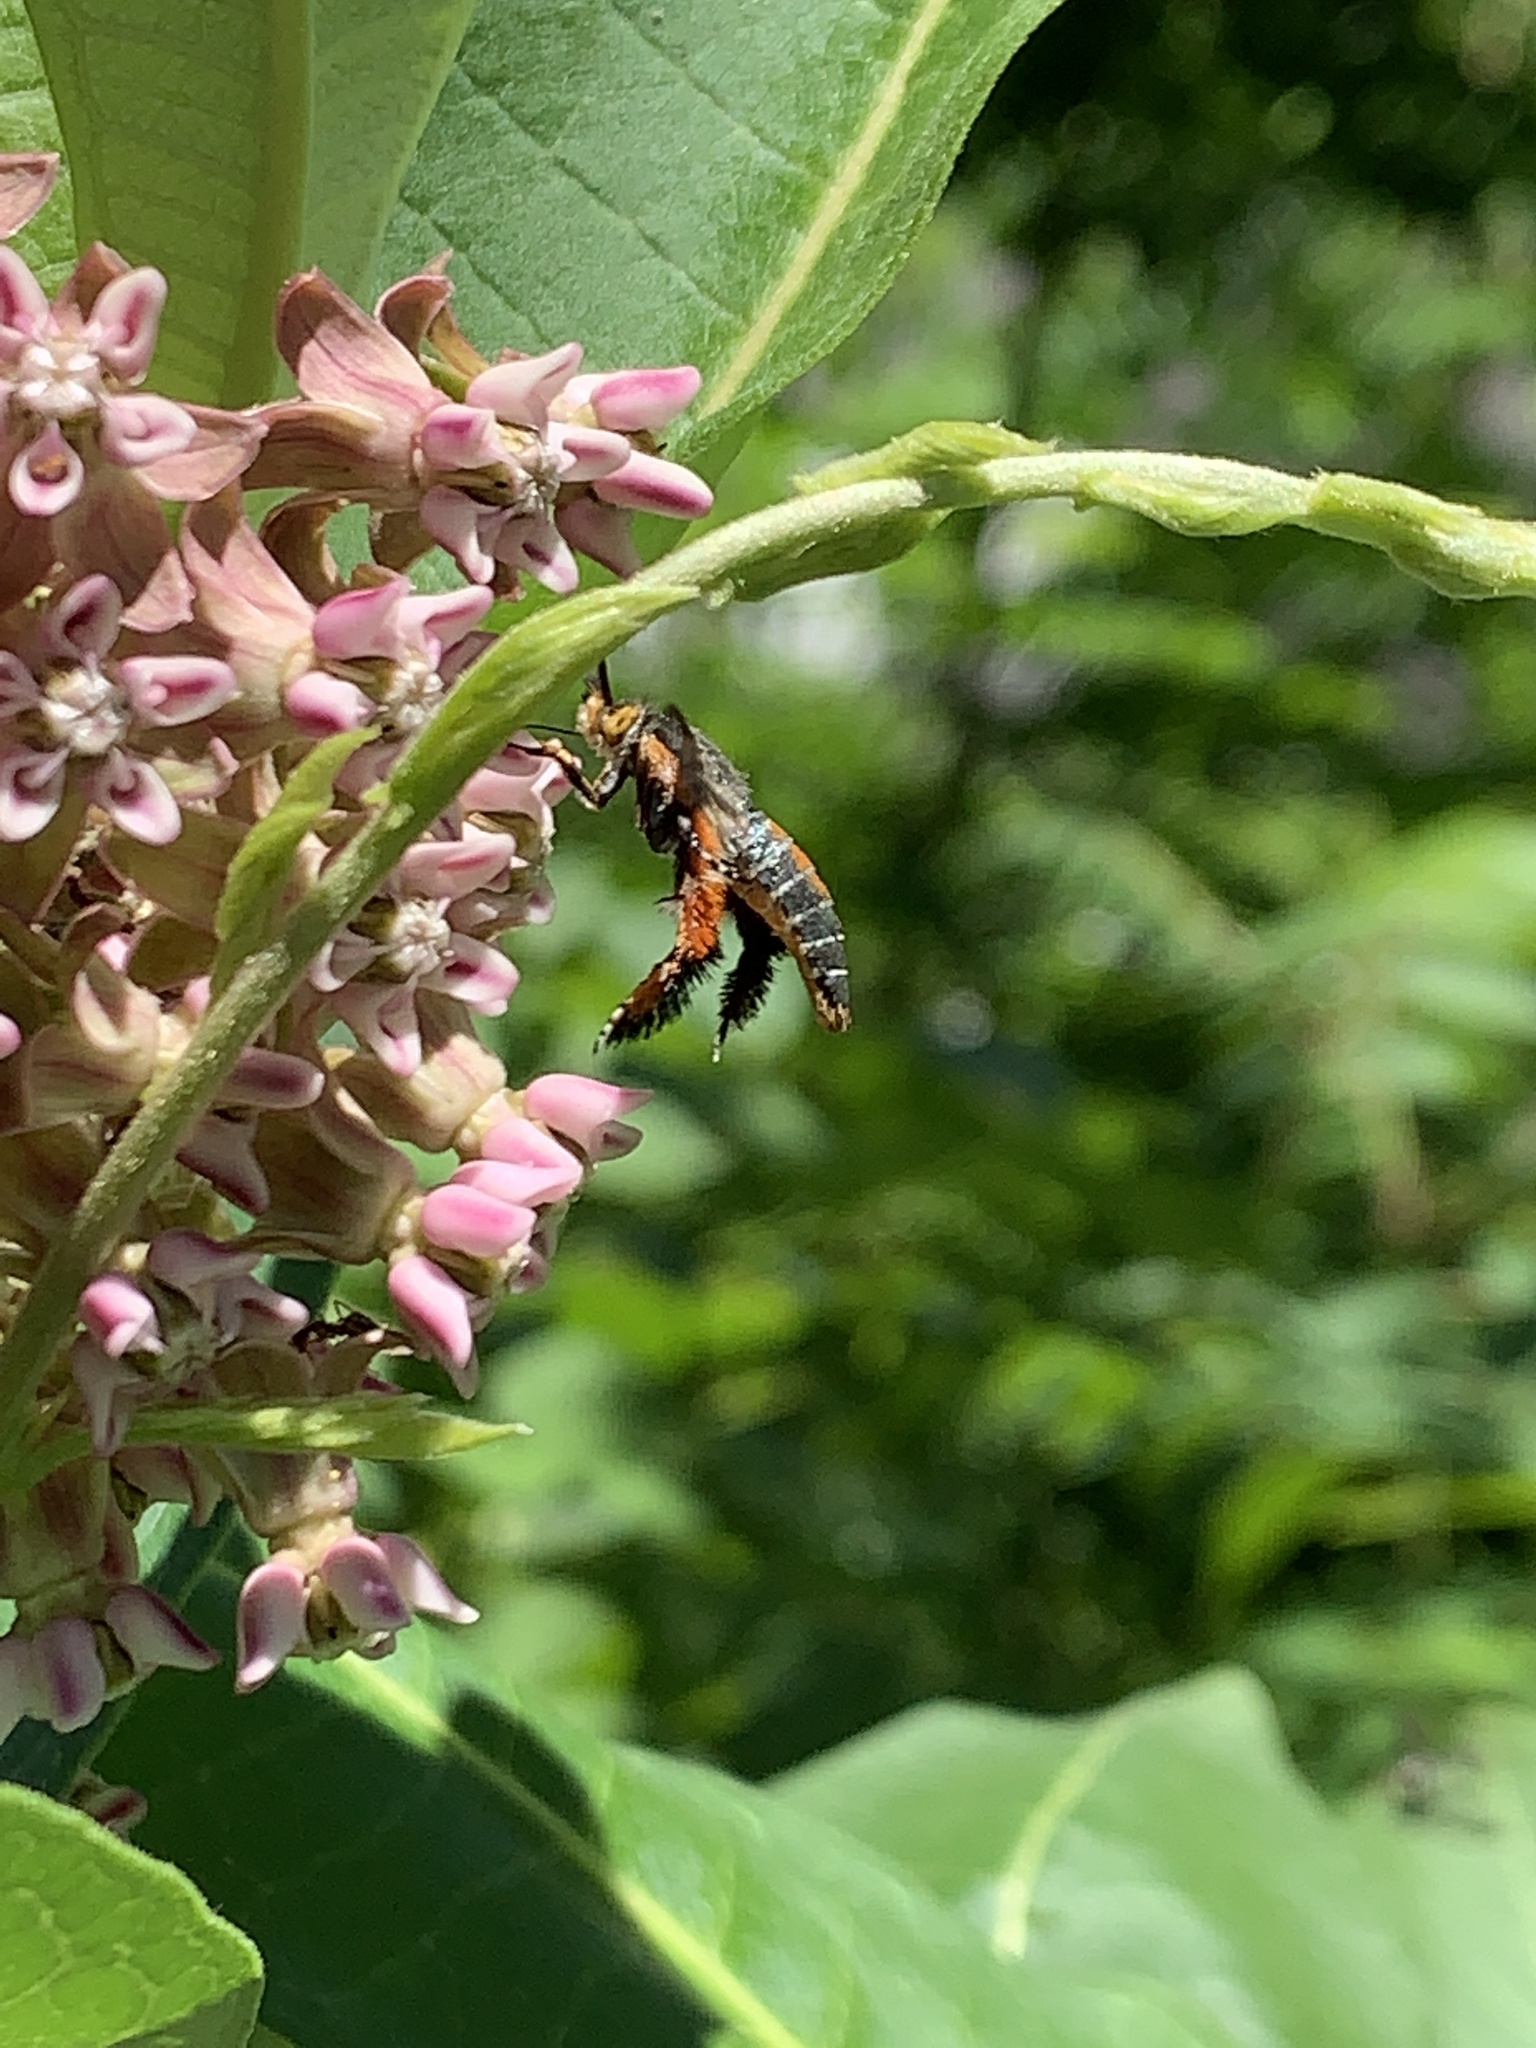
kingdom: Animalia
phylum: Arthropoda
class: Insecta
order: Lepidoptera
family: Sesiidae
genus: Eichlinia
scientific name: Eichlinia cucurbitae
